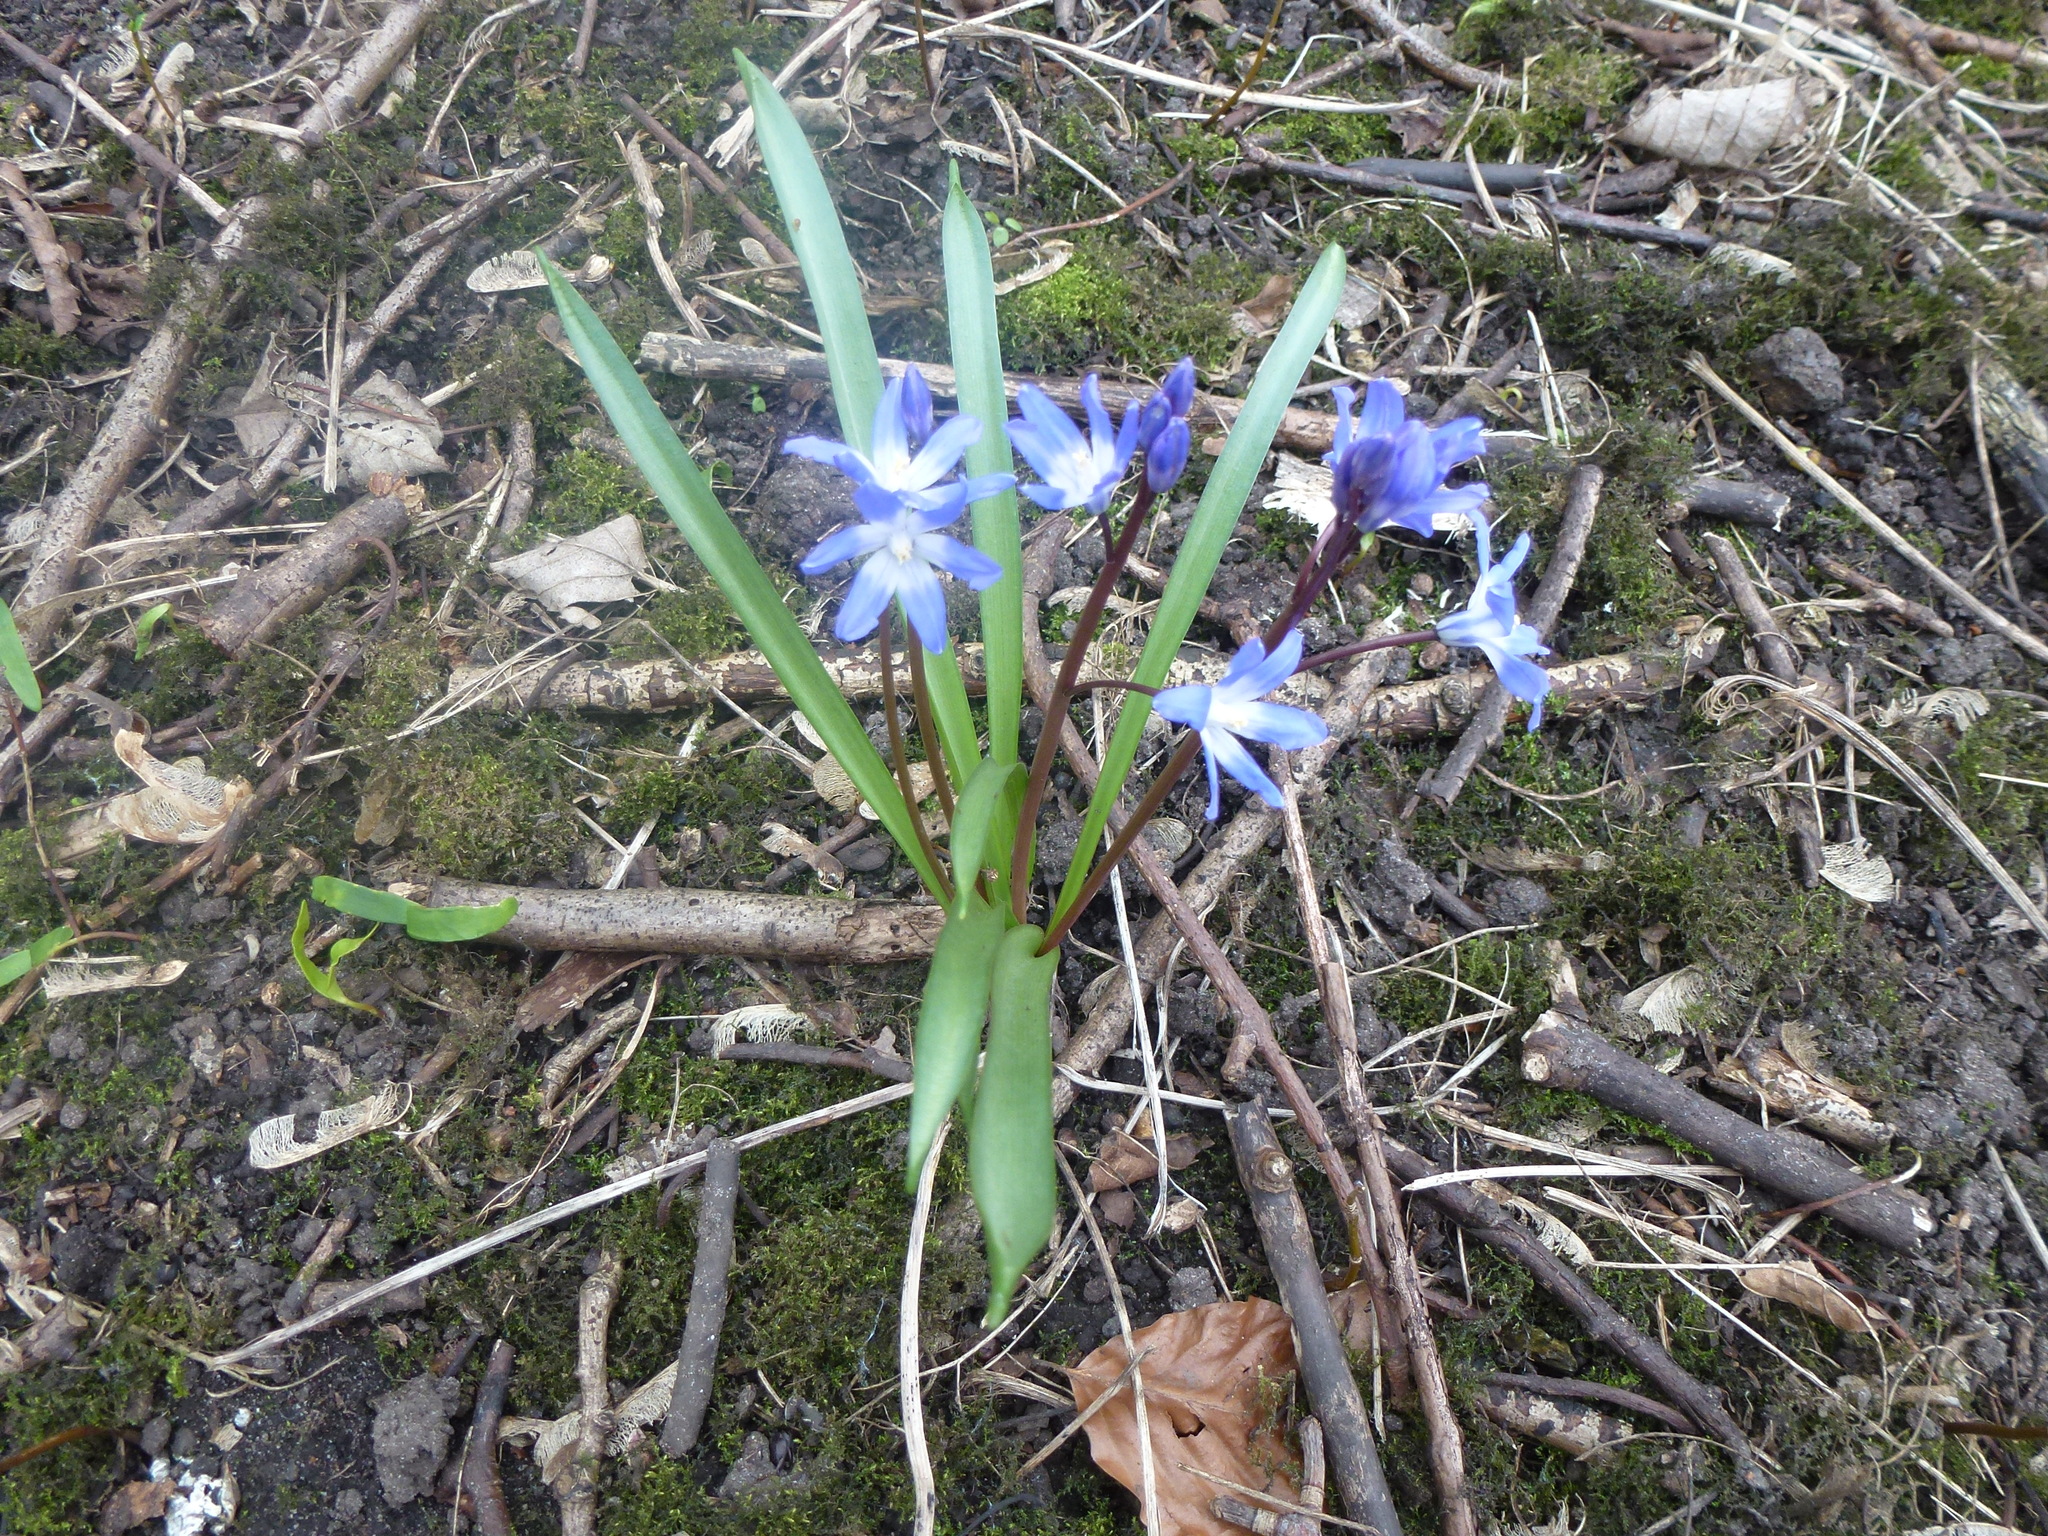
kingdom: Plantae
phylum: Tracheophyta
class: Liliopsida
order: Asparagales
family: Asparagaceae
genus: Scilla
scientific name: Scilla forbesii
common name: Glory-of-the-snow
